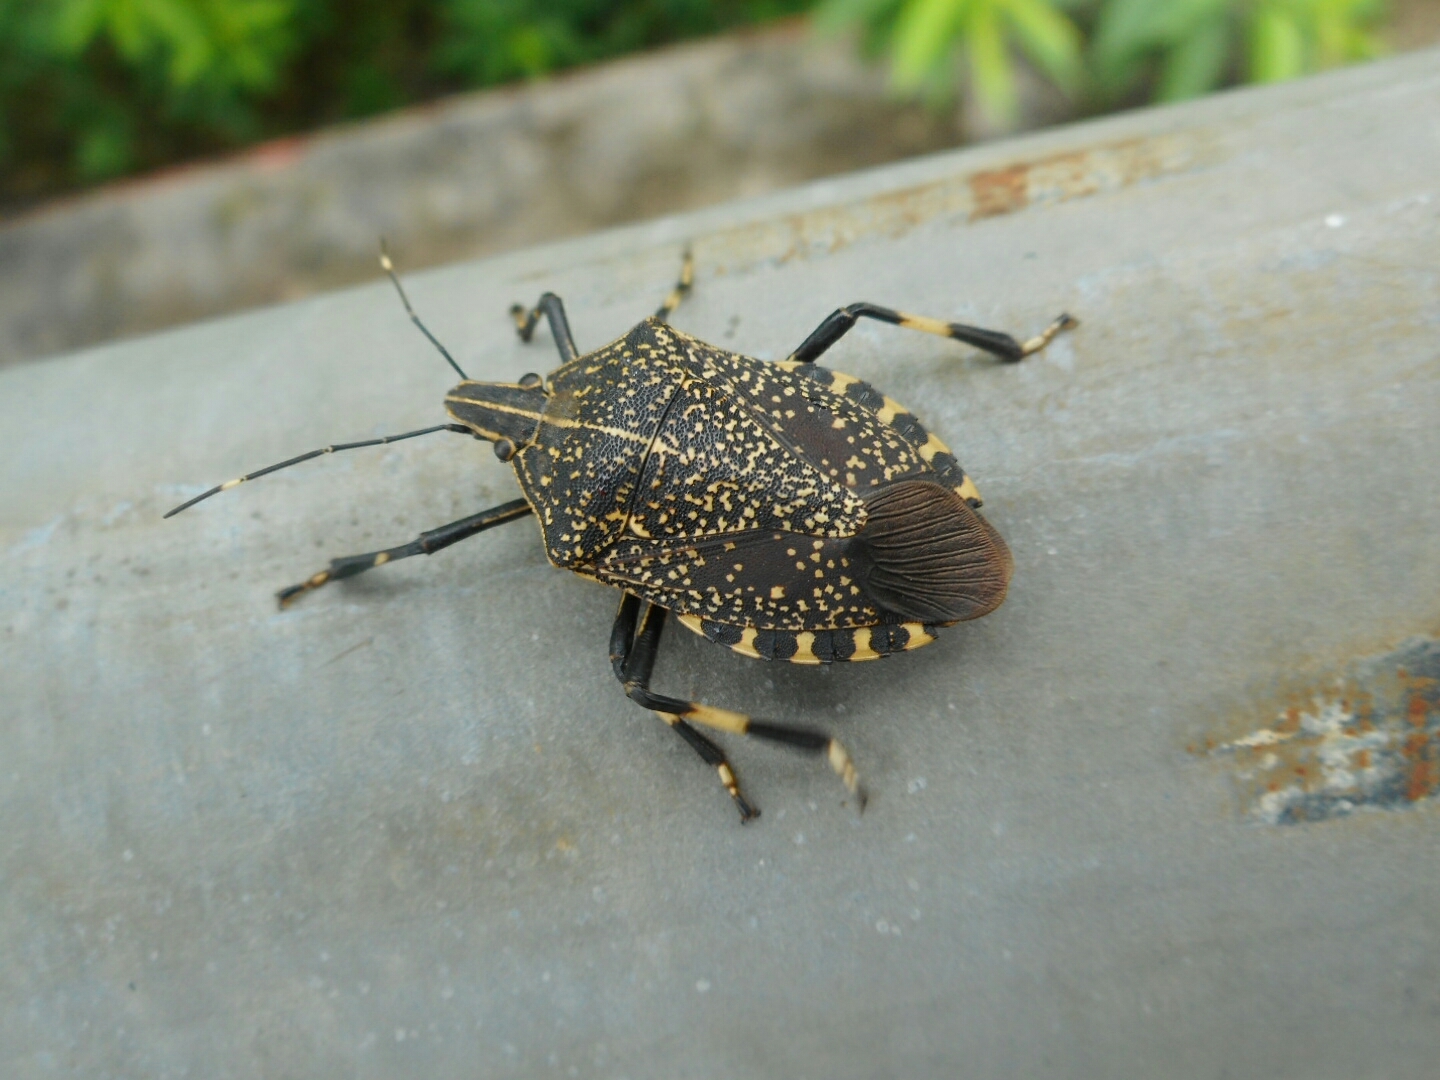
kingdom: Animalia
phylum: Arthropoda
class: Insecta
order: Hemiptera
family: Pentatomidae
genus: Erthesina
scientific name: Erthesina fullo
